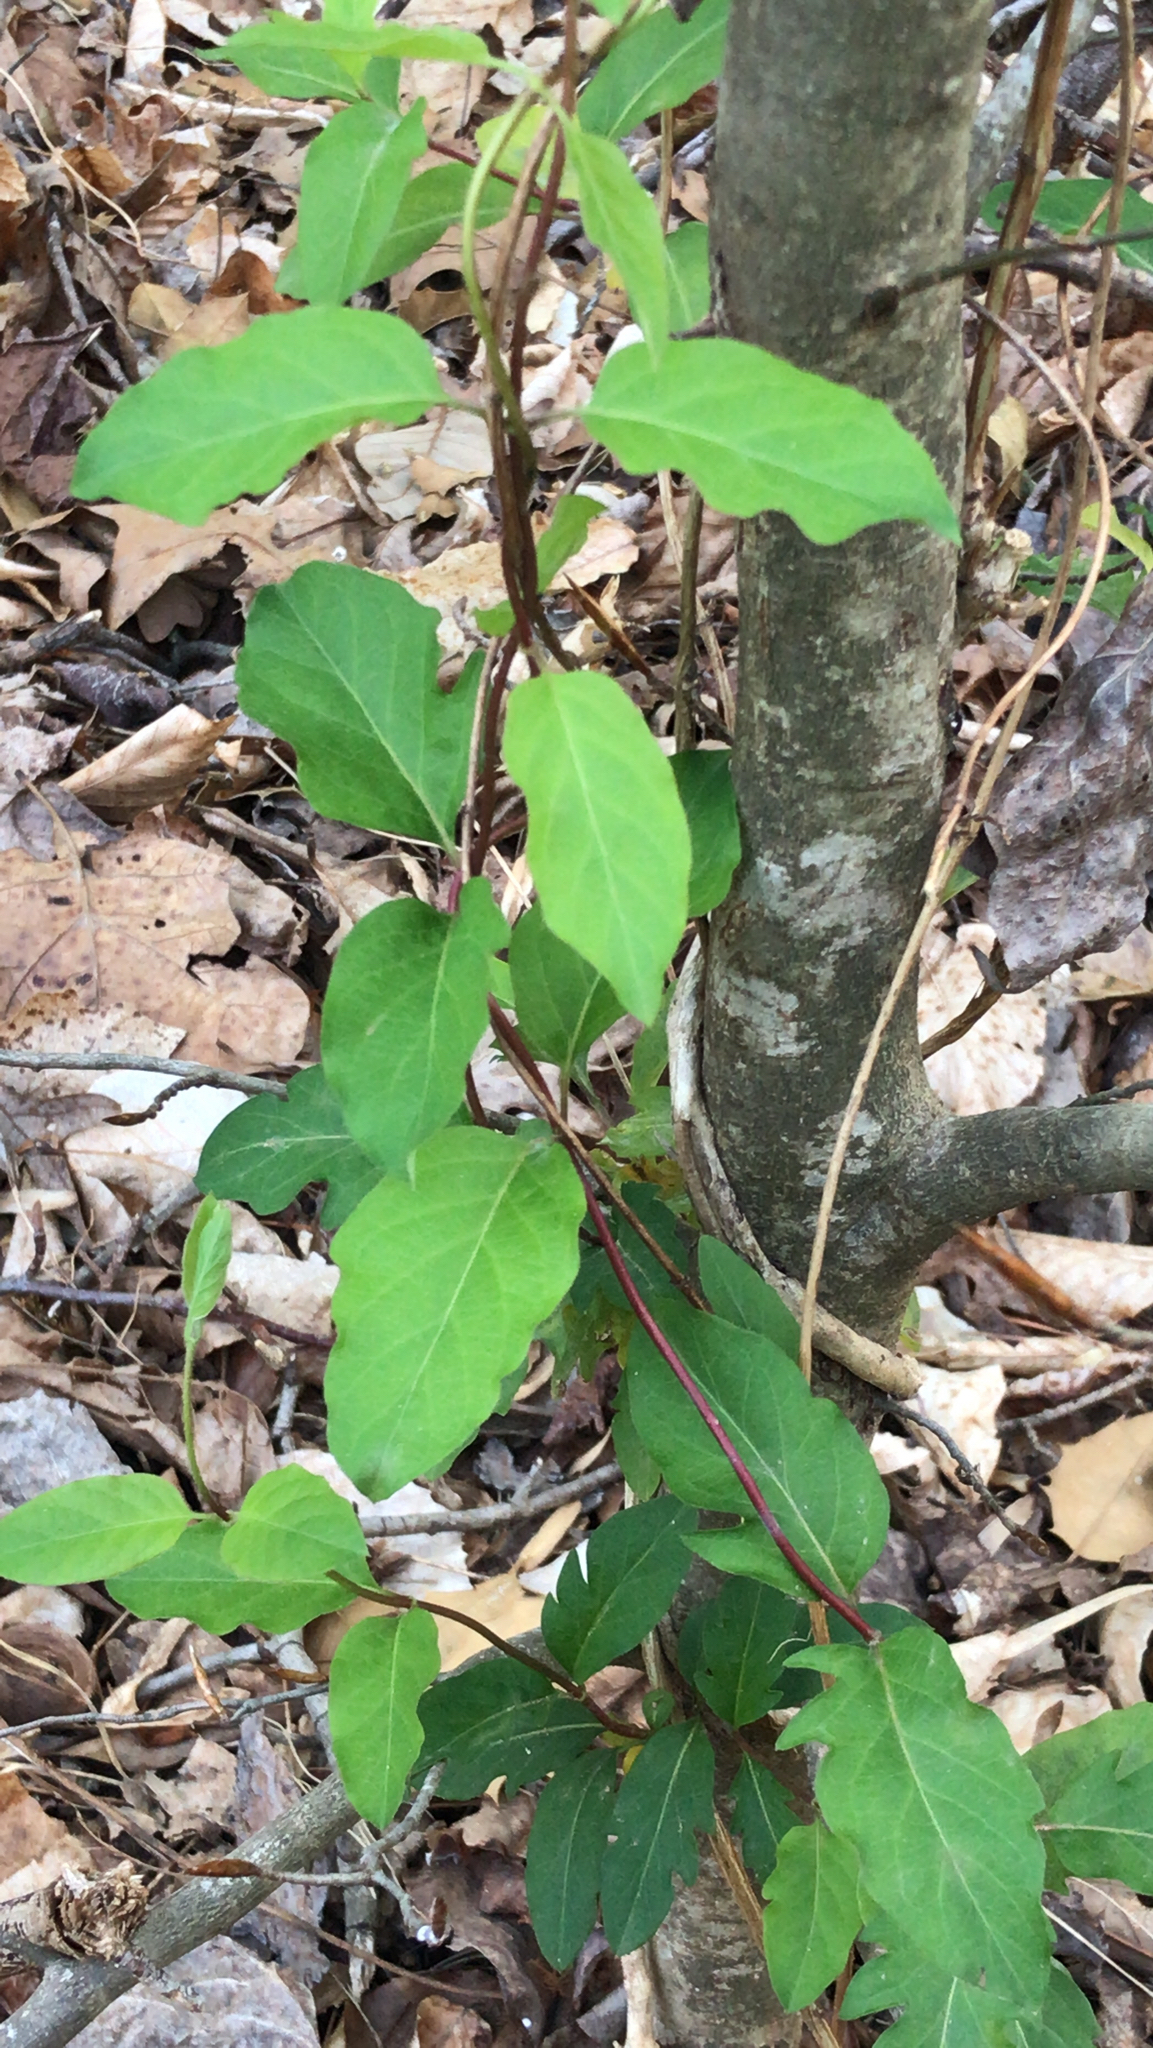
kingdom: Plantae
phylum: Tracheophyta
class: Magnoliopsida
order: Dipsacales
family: Caprifoliaceae
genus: Lonicera
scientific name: Lonicera japonica
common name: Japanese honeysuckle
